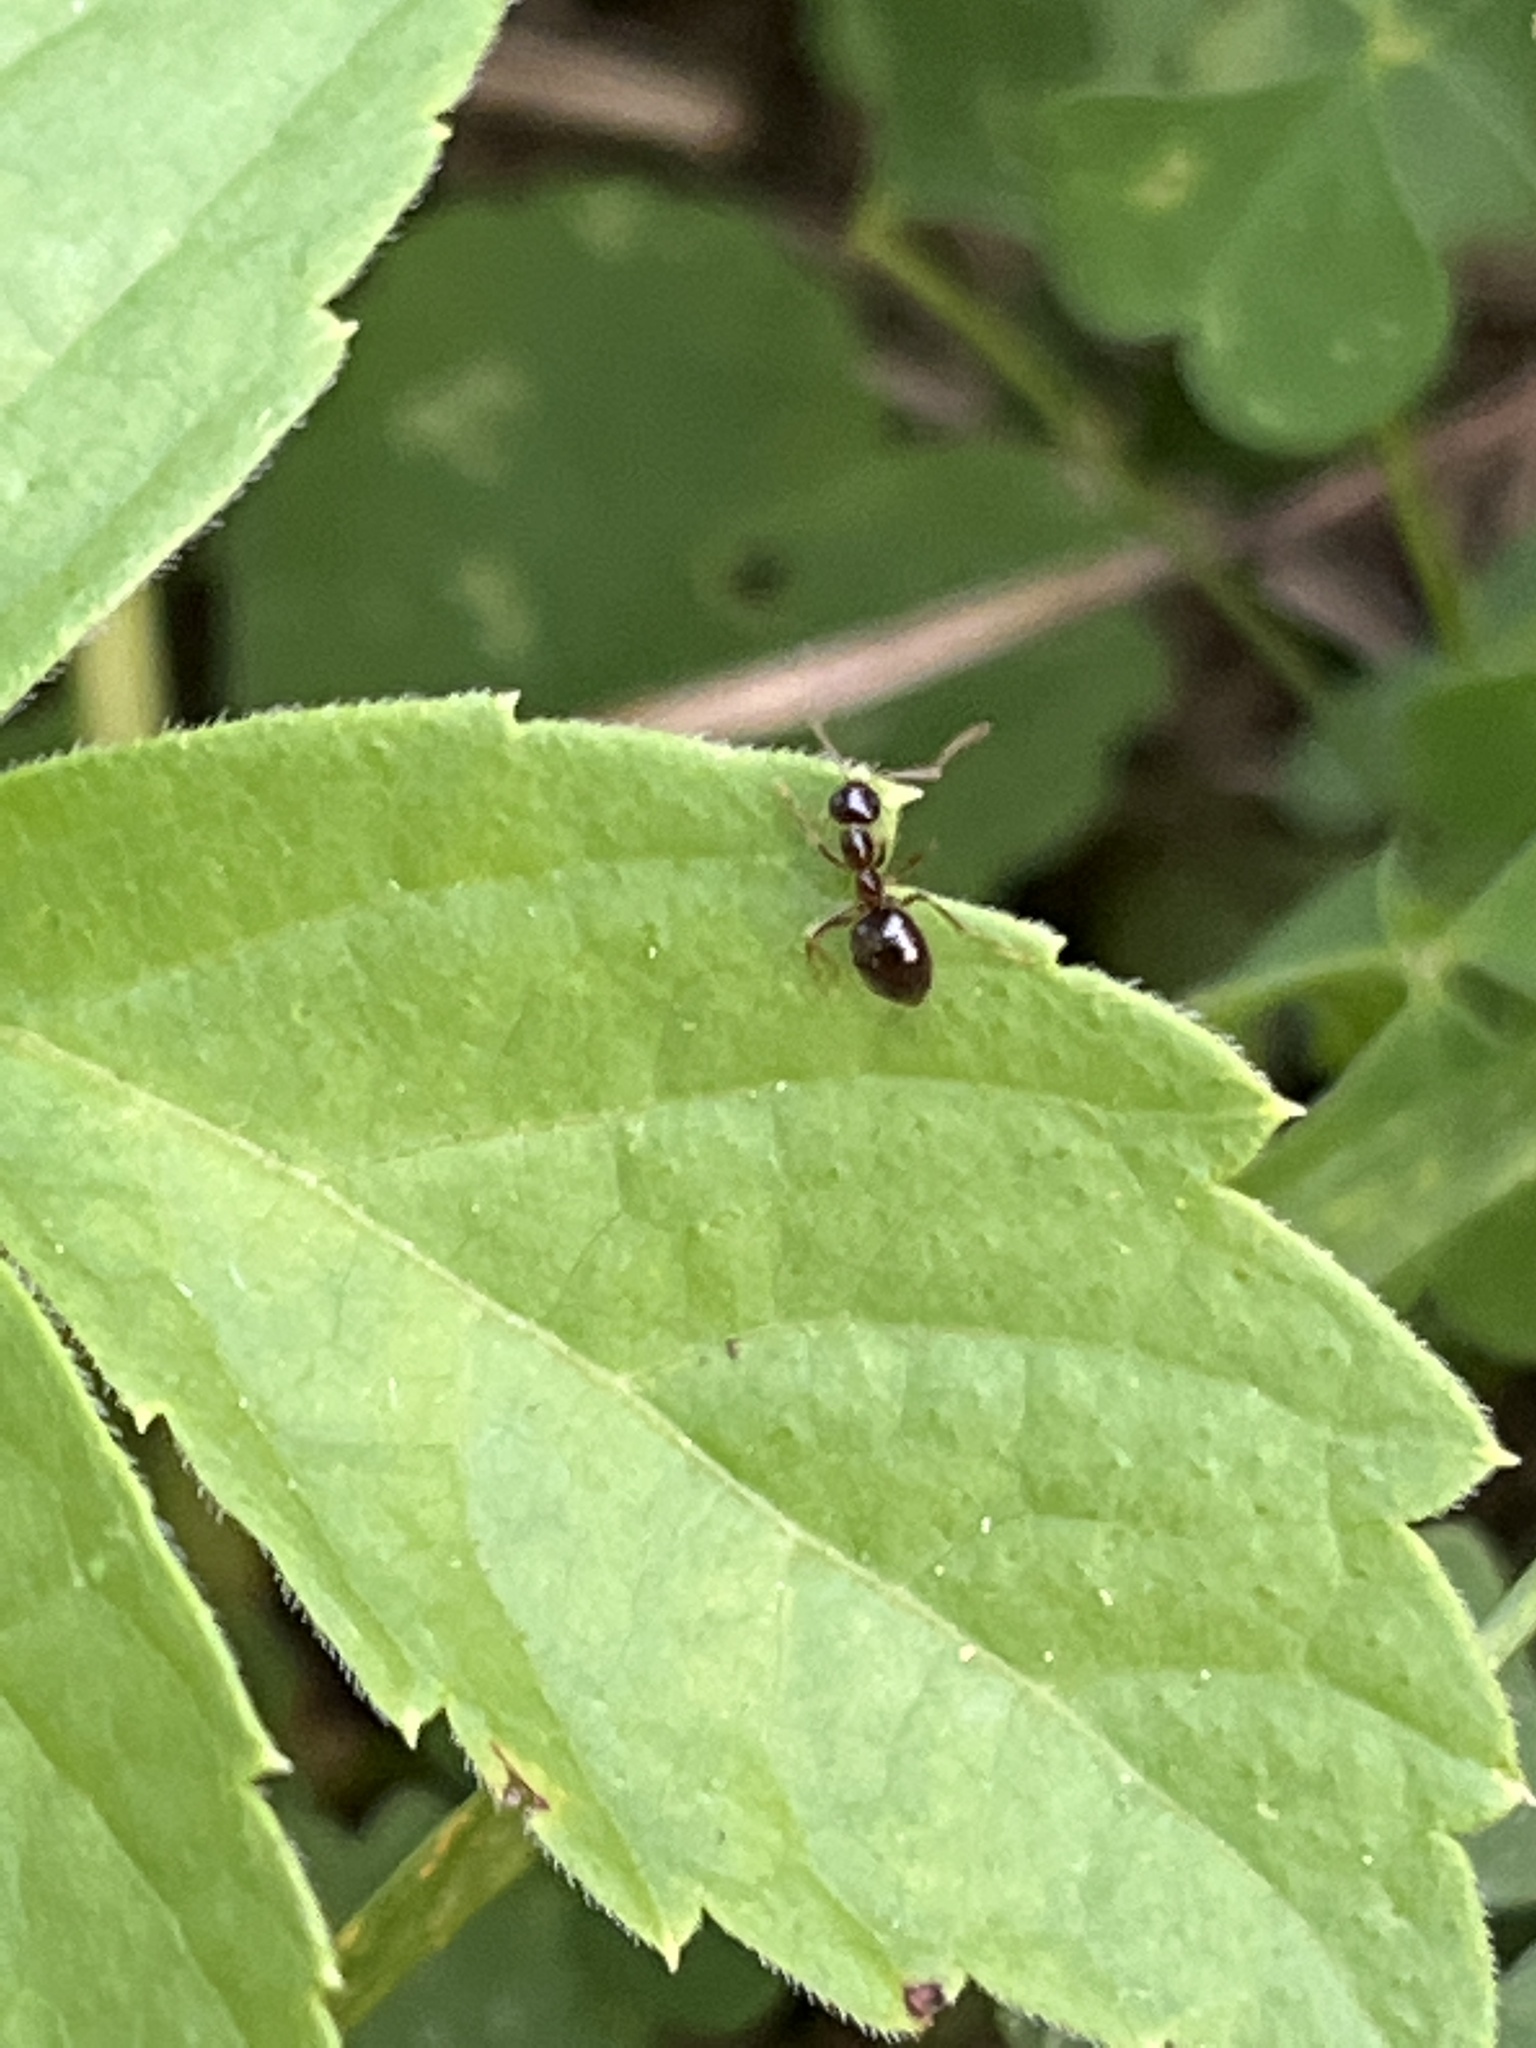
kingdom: Animalia
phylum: Arthropoda
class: Insecta
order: Hymenoptera
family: Formicidae
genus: Prenolepis
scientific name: Prenolepis imparis
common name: Small honey ant
